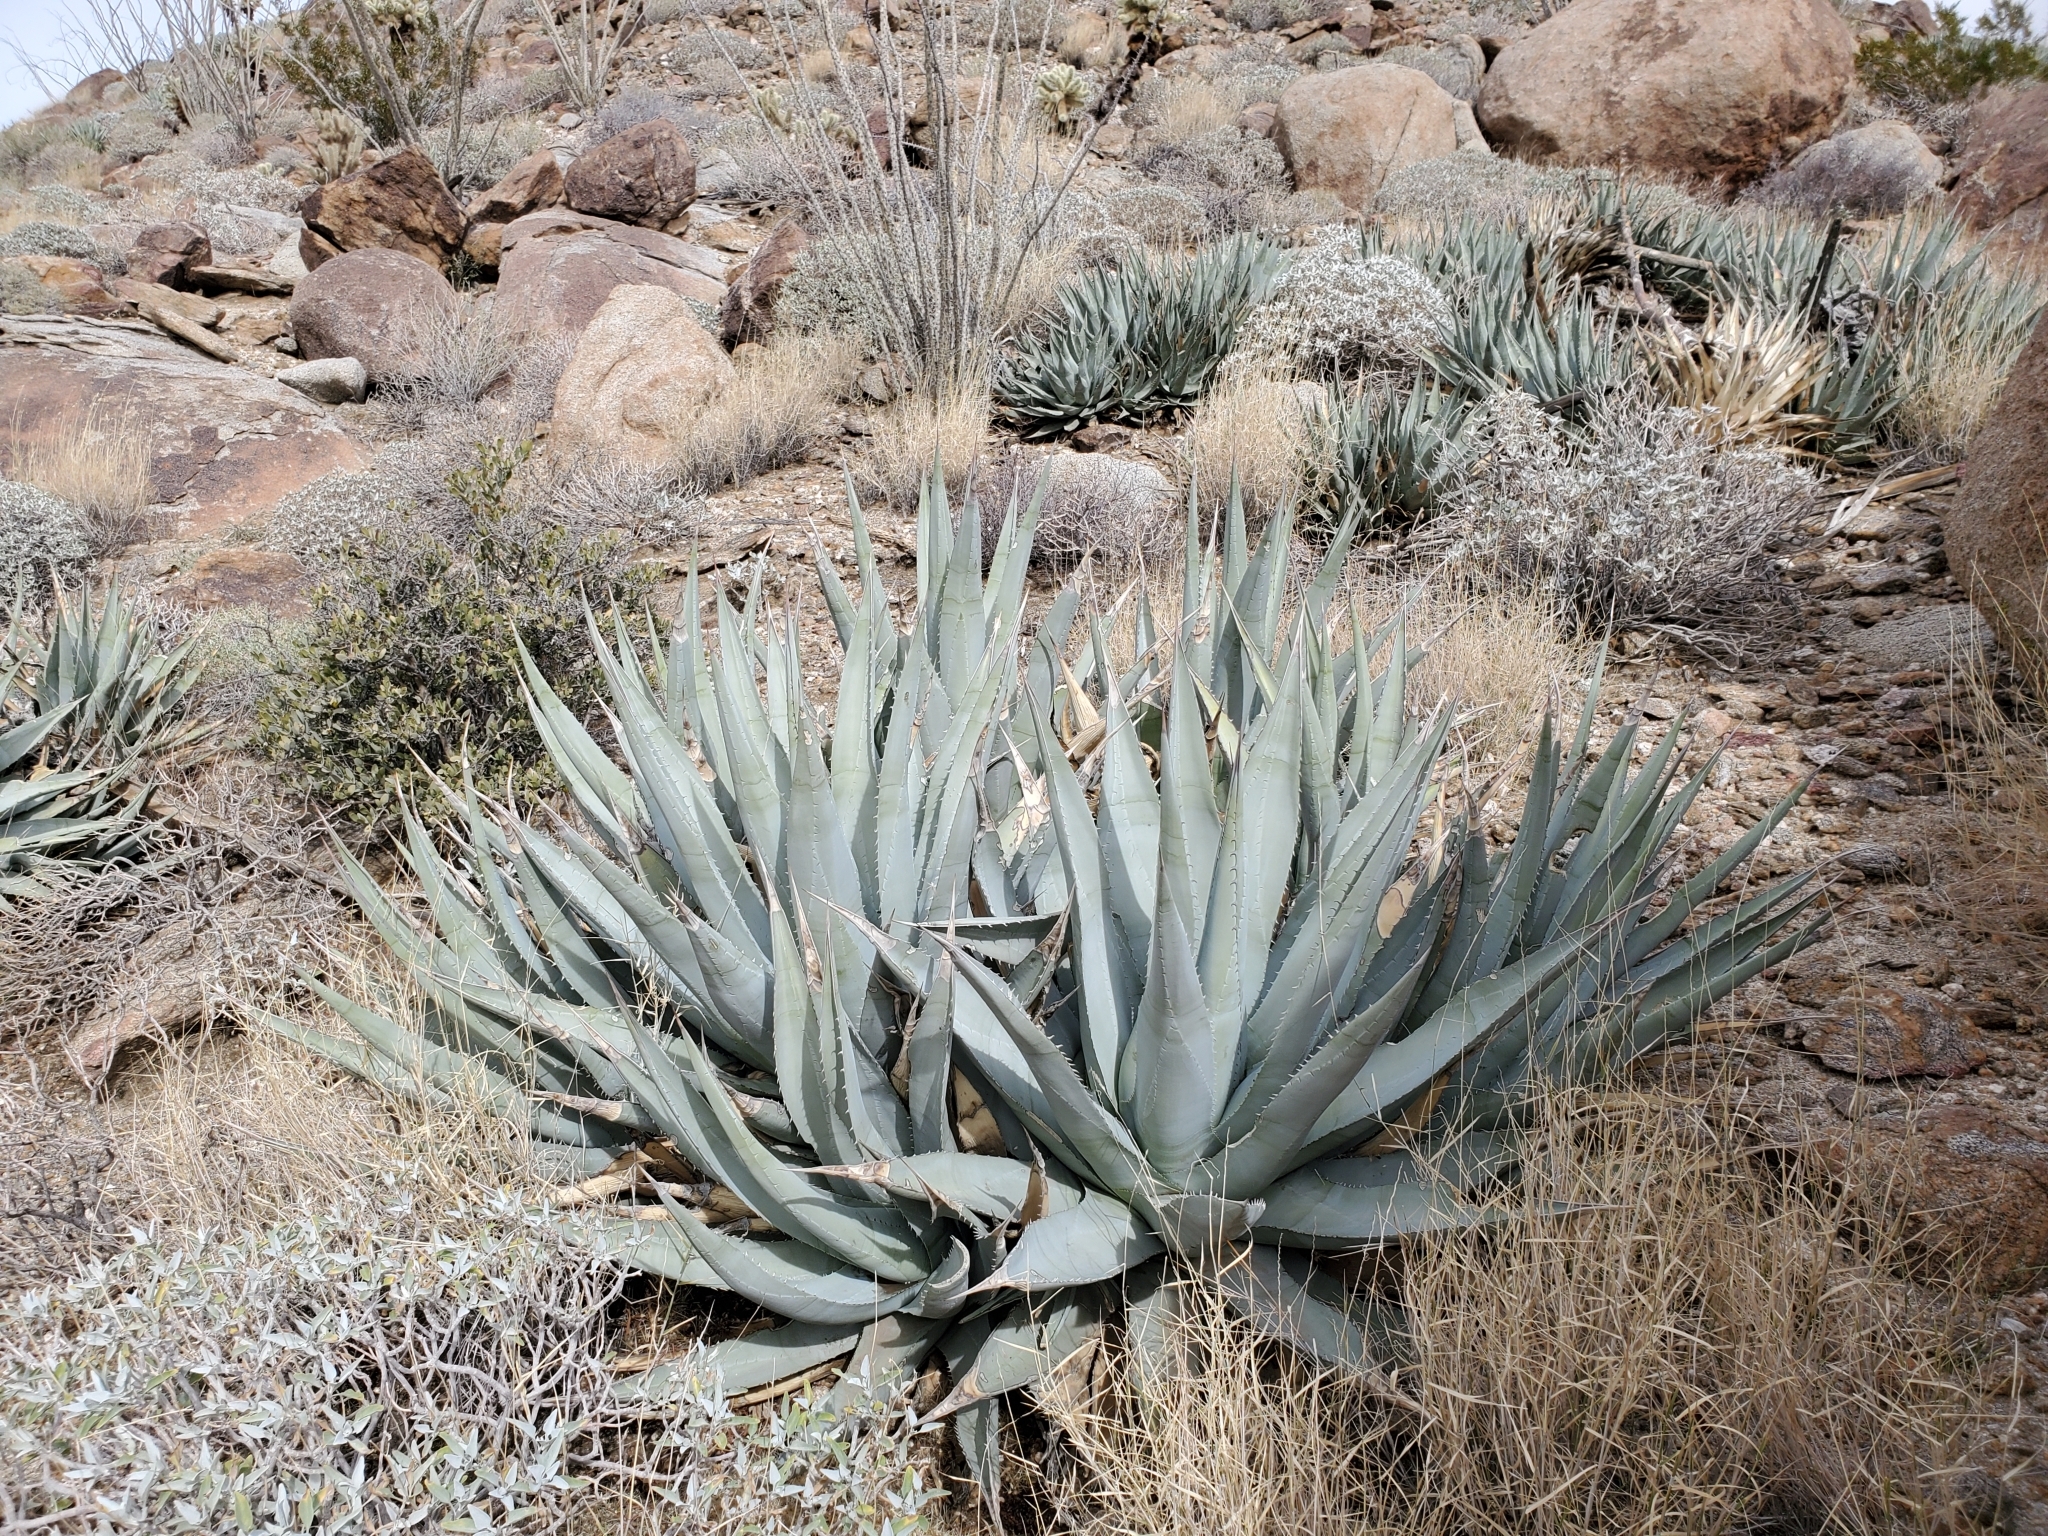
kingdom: Plantae
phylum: Tracheophyta
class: Liliopsida
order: Asparagales
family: Asparagaceae
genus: Agave
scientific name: Agave deserti
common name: Desert agave
